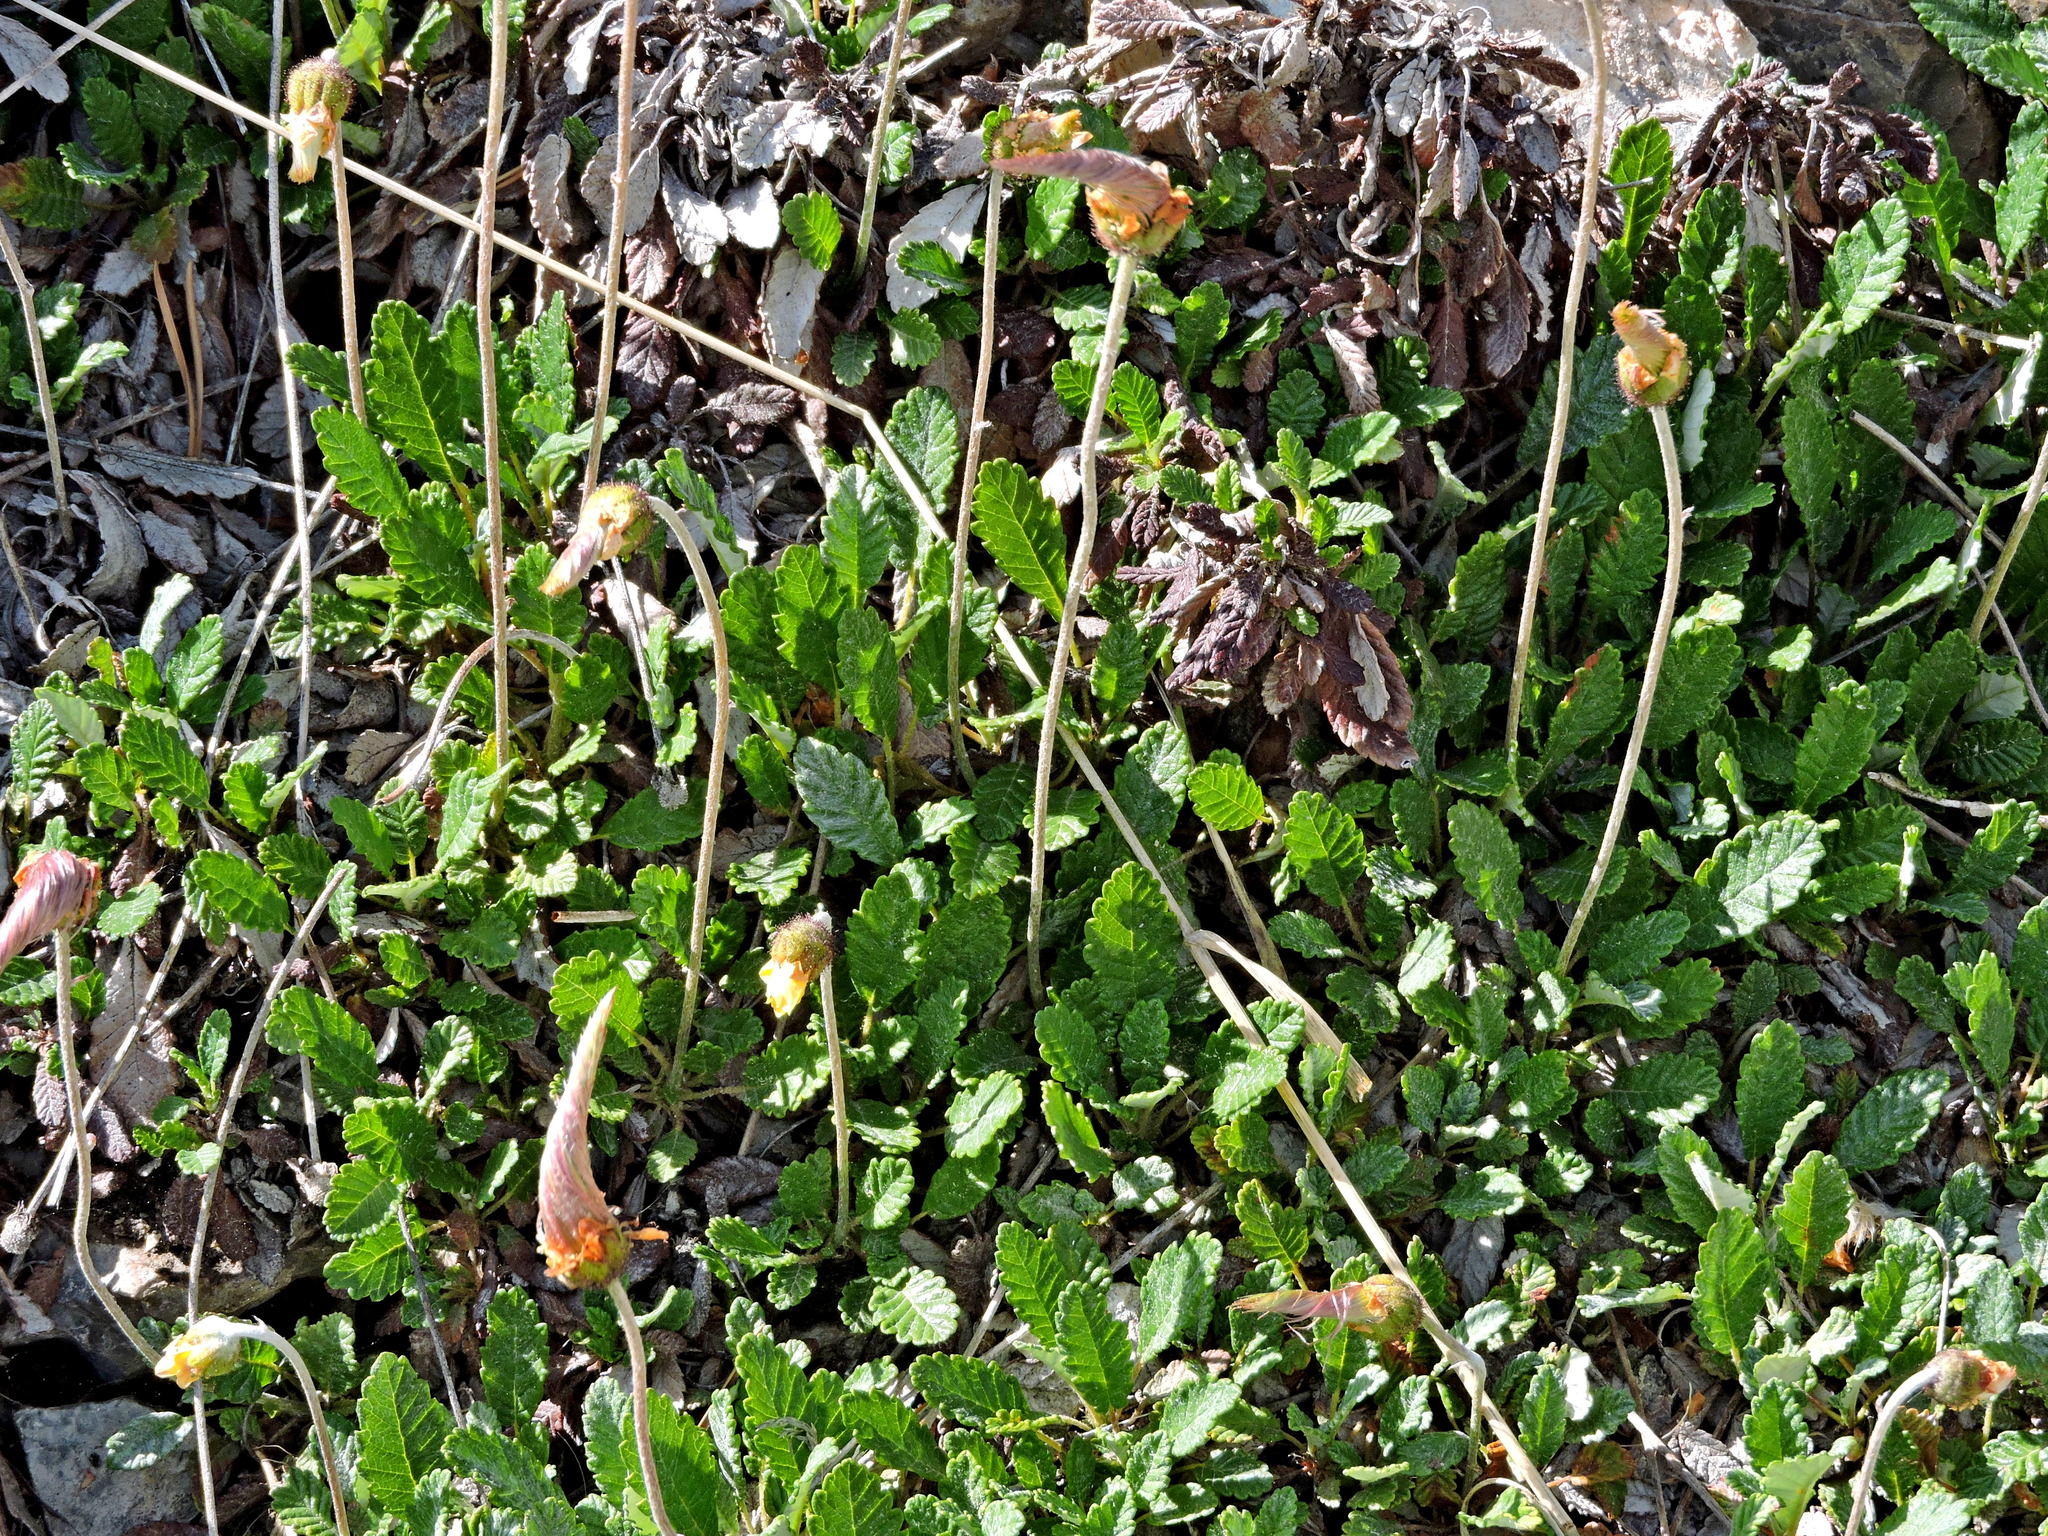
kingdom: Plantae
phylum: Tracheophyta
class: Magnoliopsida
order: Rosales
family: Rosaceae
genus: Dryas
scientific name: Dryas drummondii
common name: Drummond's dryad
